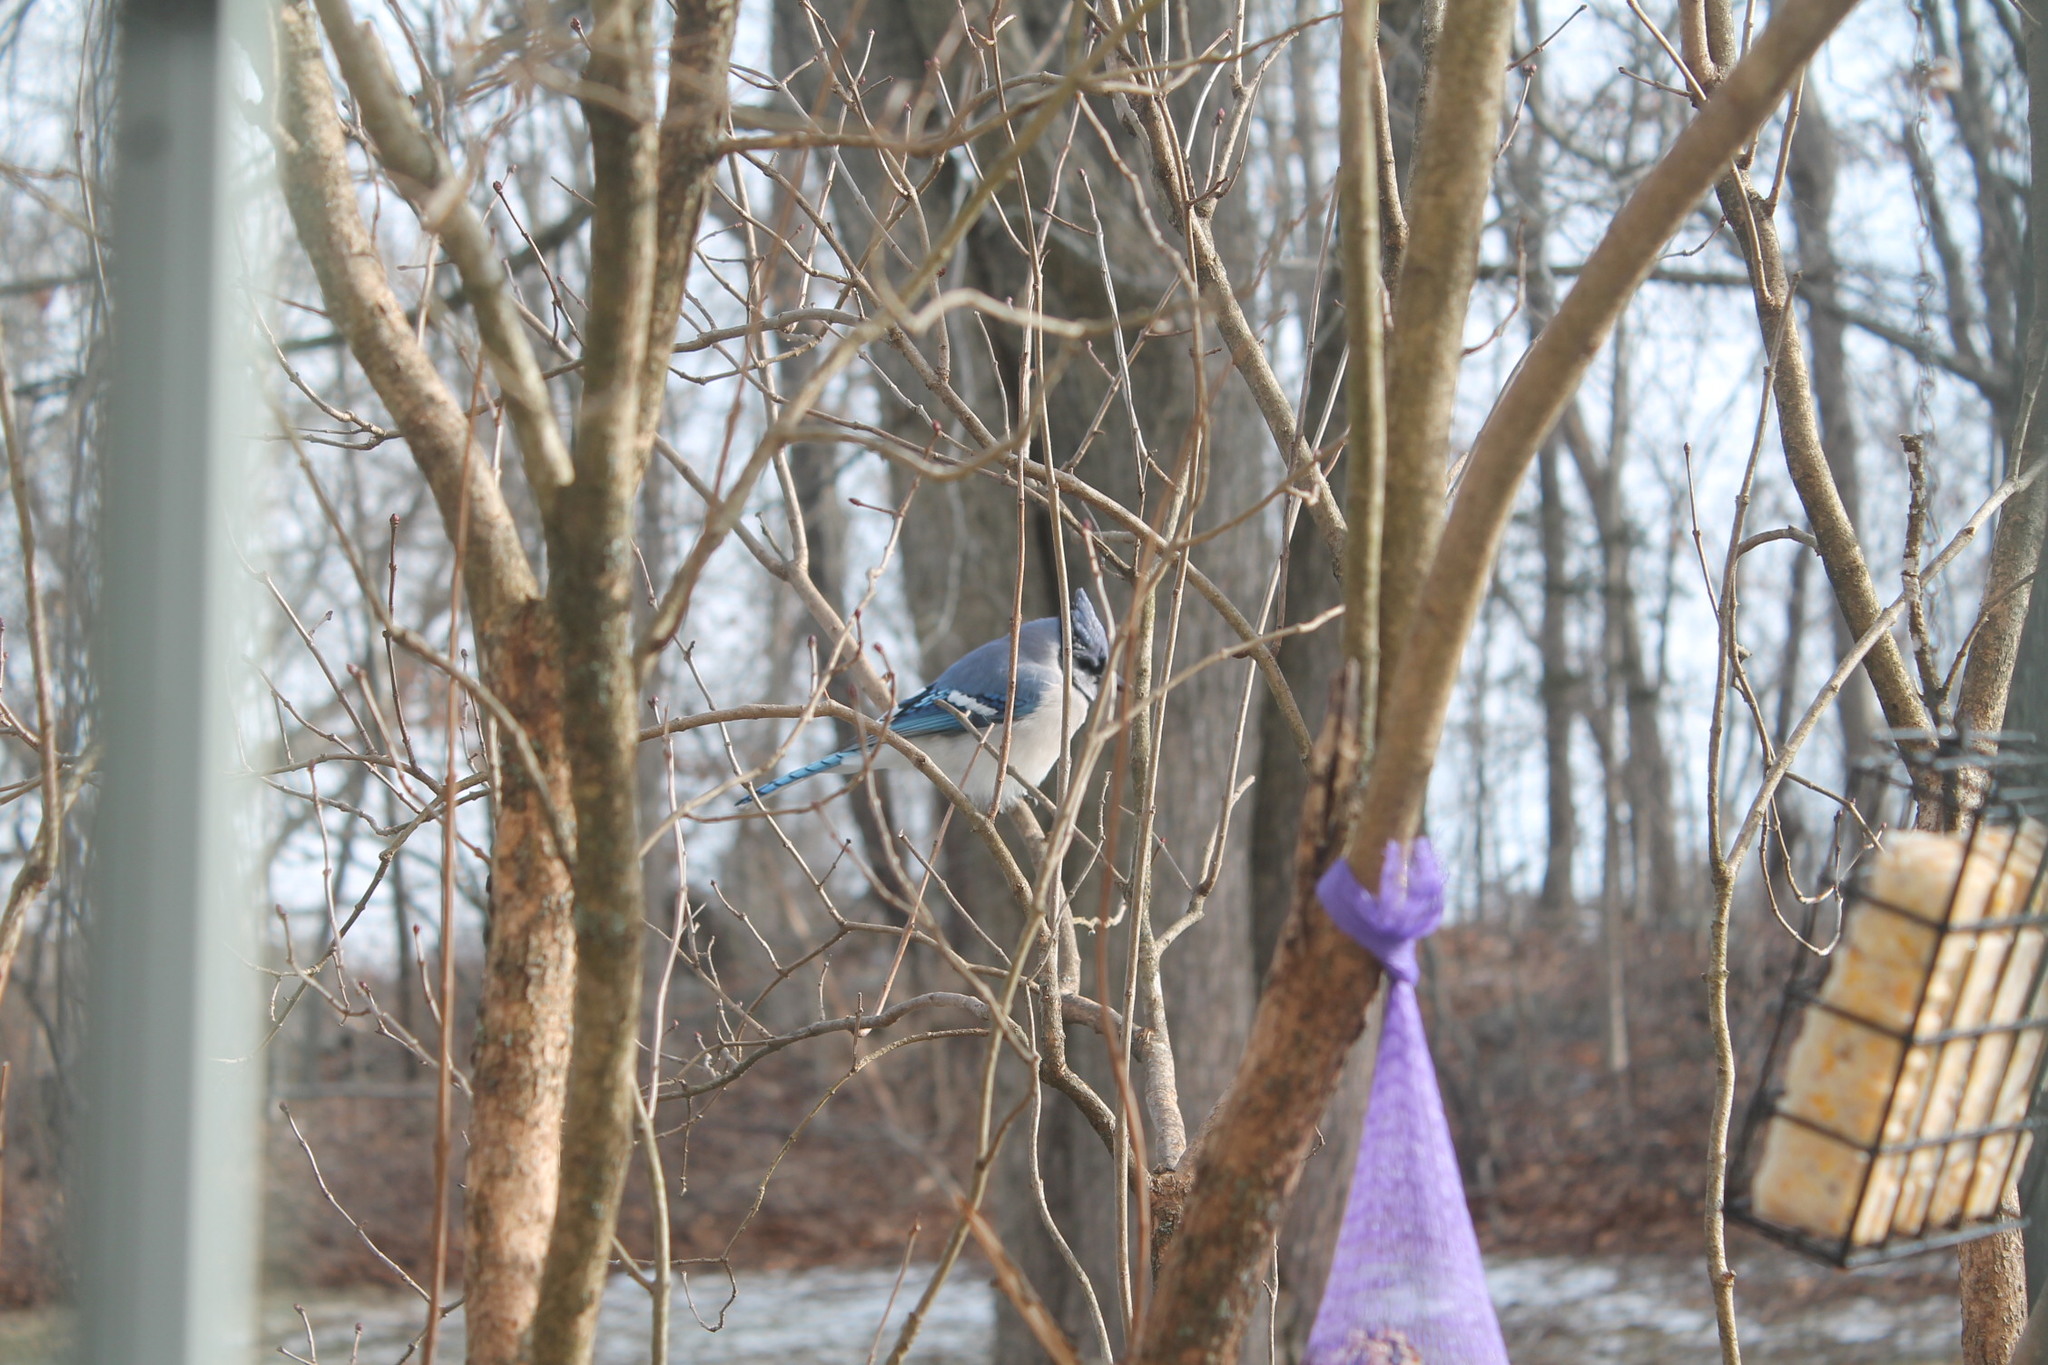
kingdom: Animalia
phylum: Chordata
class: Aves
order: Passeriformes
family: Corvidae
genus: Cyanocitta
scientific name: Cyanocitta cristata
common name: Blue jay
